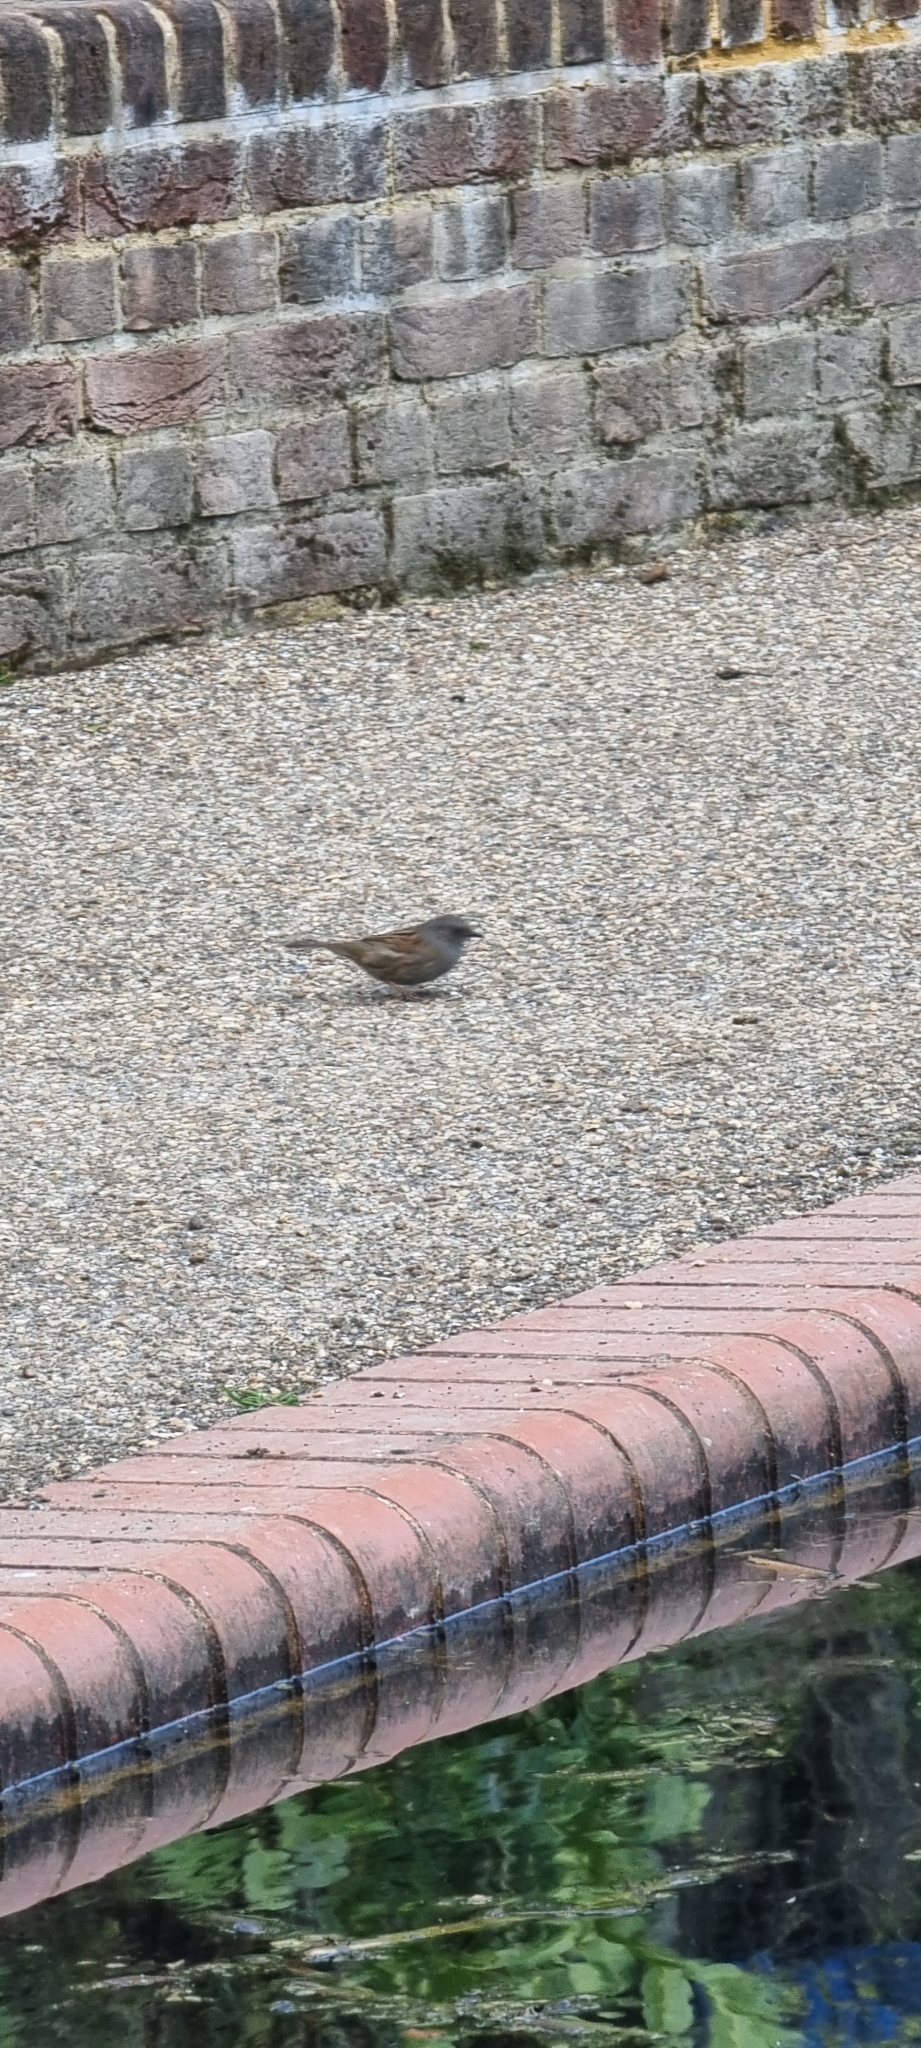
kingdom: Animalia
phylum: Chordata
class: Aves
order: Passeriformes
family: Prunellidae
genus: Prunella
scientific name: Prunella modularis
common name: Dunnock
